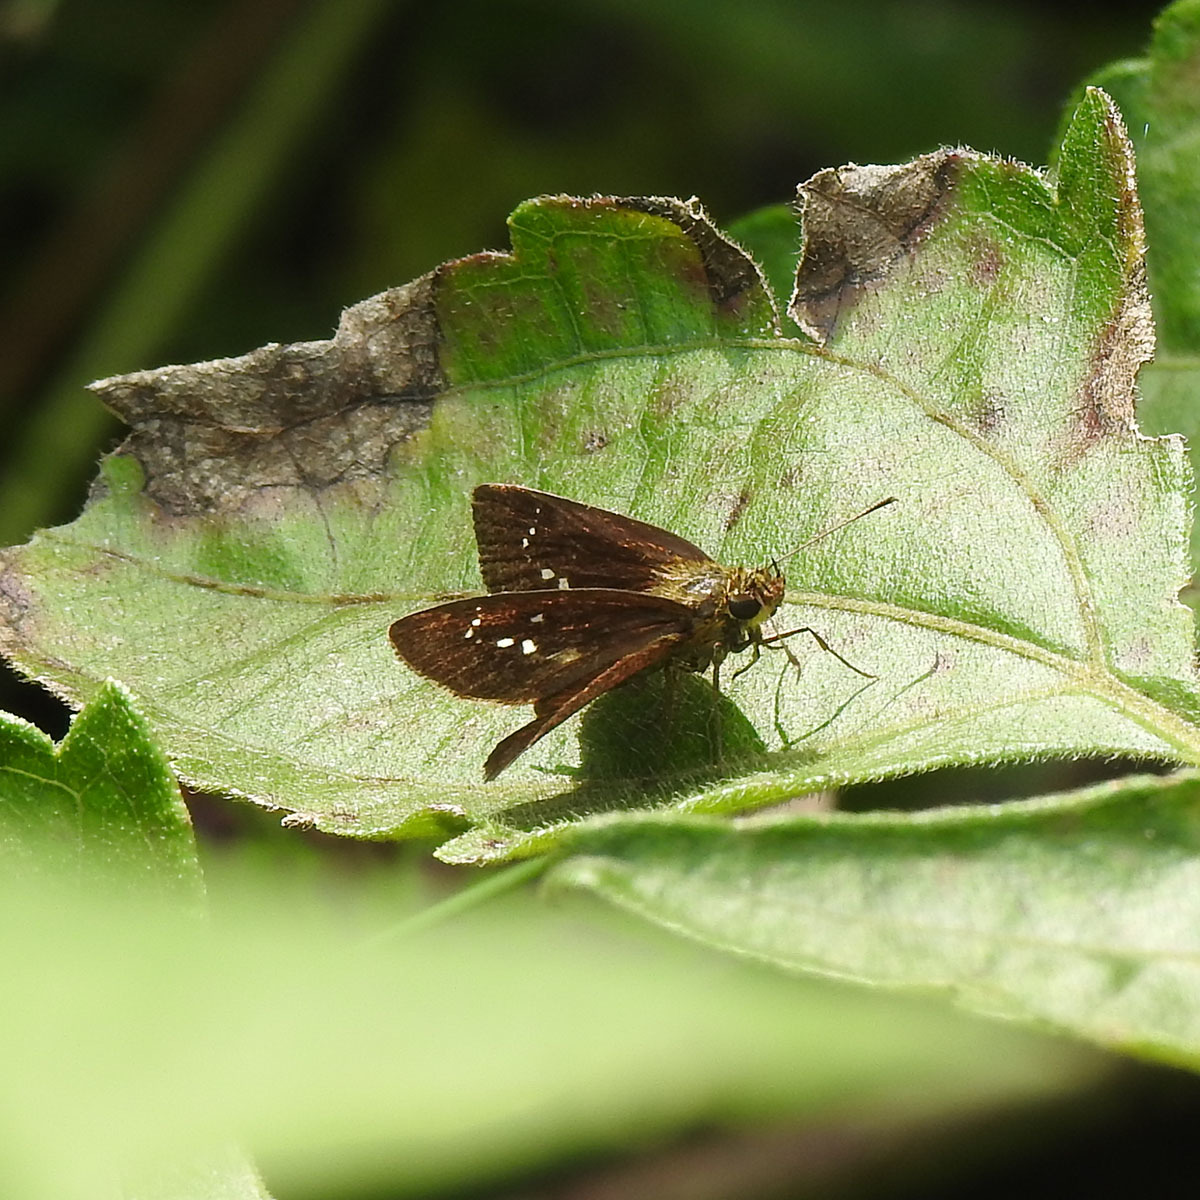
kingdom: Animalia
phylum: Arthropoda
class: Insecta
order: Lepidoptera
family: Hesperiidae
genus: Iambrix
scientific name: Iambrix salsala
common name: Chestnut bob
